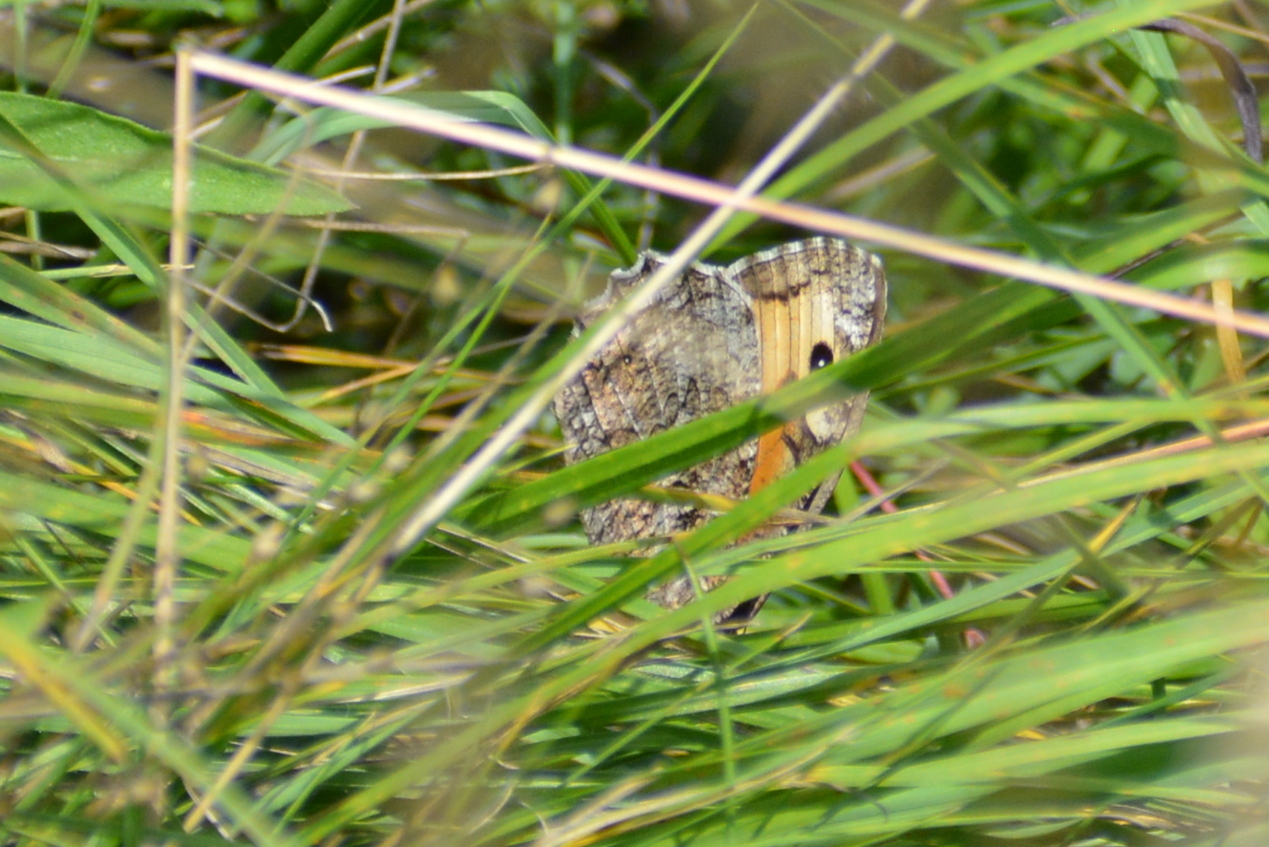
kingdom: Animalia
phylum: Arthropoda
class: Insecta
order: Lepidoptera
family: Nymphalidae
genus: Hipparchia
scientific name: Hipparchia semele
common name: Grayling
